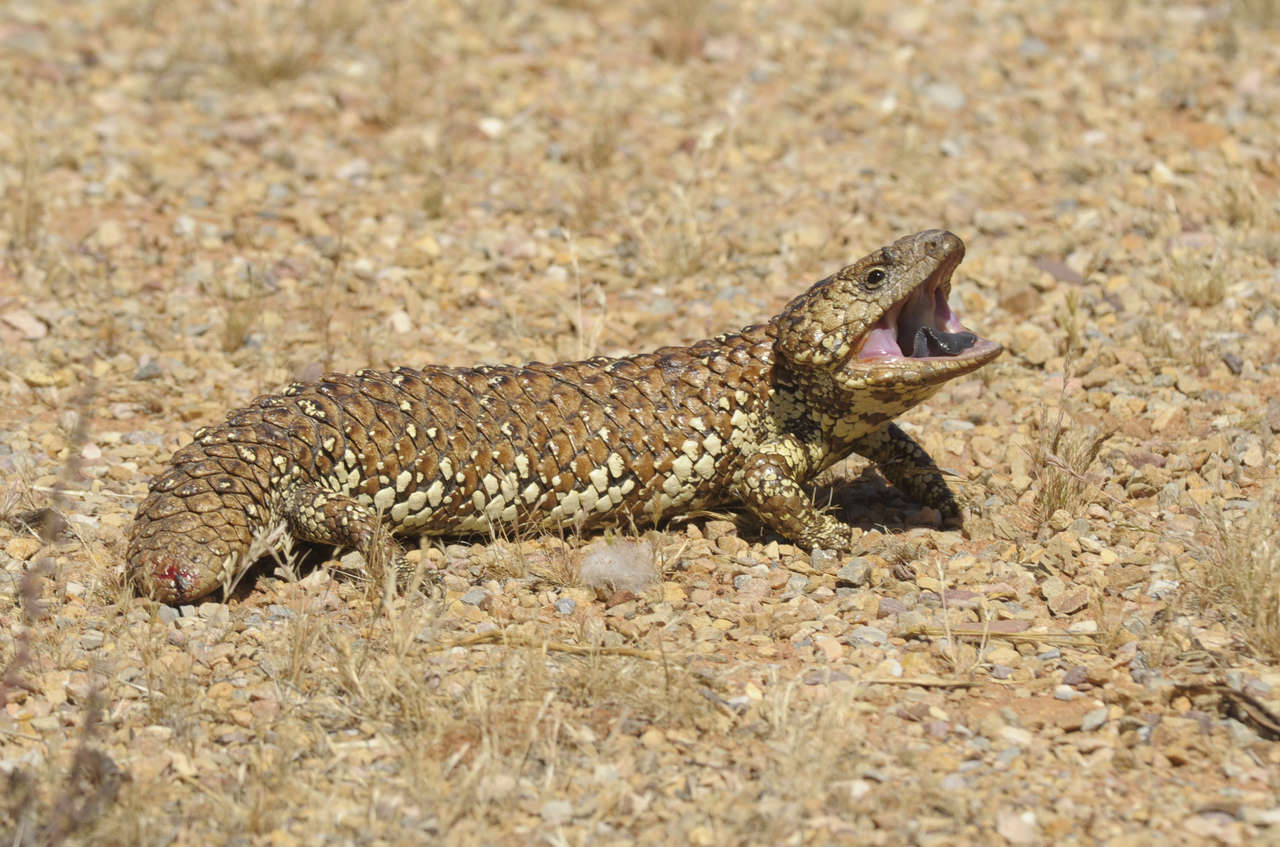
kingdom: Animalia
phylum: Chordata
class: Squamata
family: Scincidae
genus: Tiliqua
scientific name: Tiliqua rugosa
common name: Pinecone lizard
